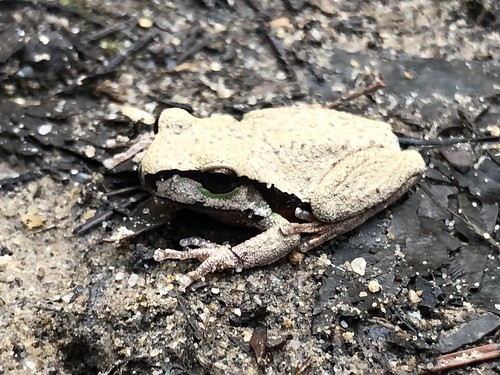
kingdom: Animalia
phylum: Chordata
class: Amphibia
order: Anura
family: Pelodryadidae
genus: Ranoidea
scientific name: Ranoidea citropa
